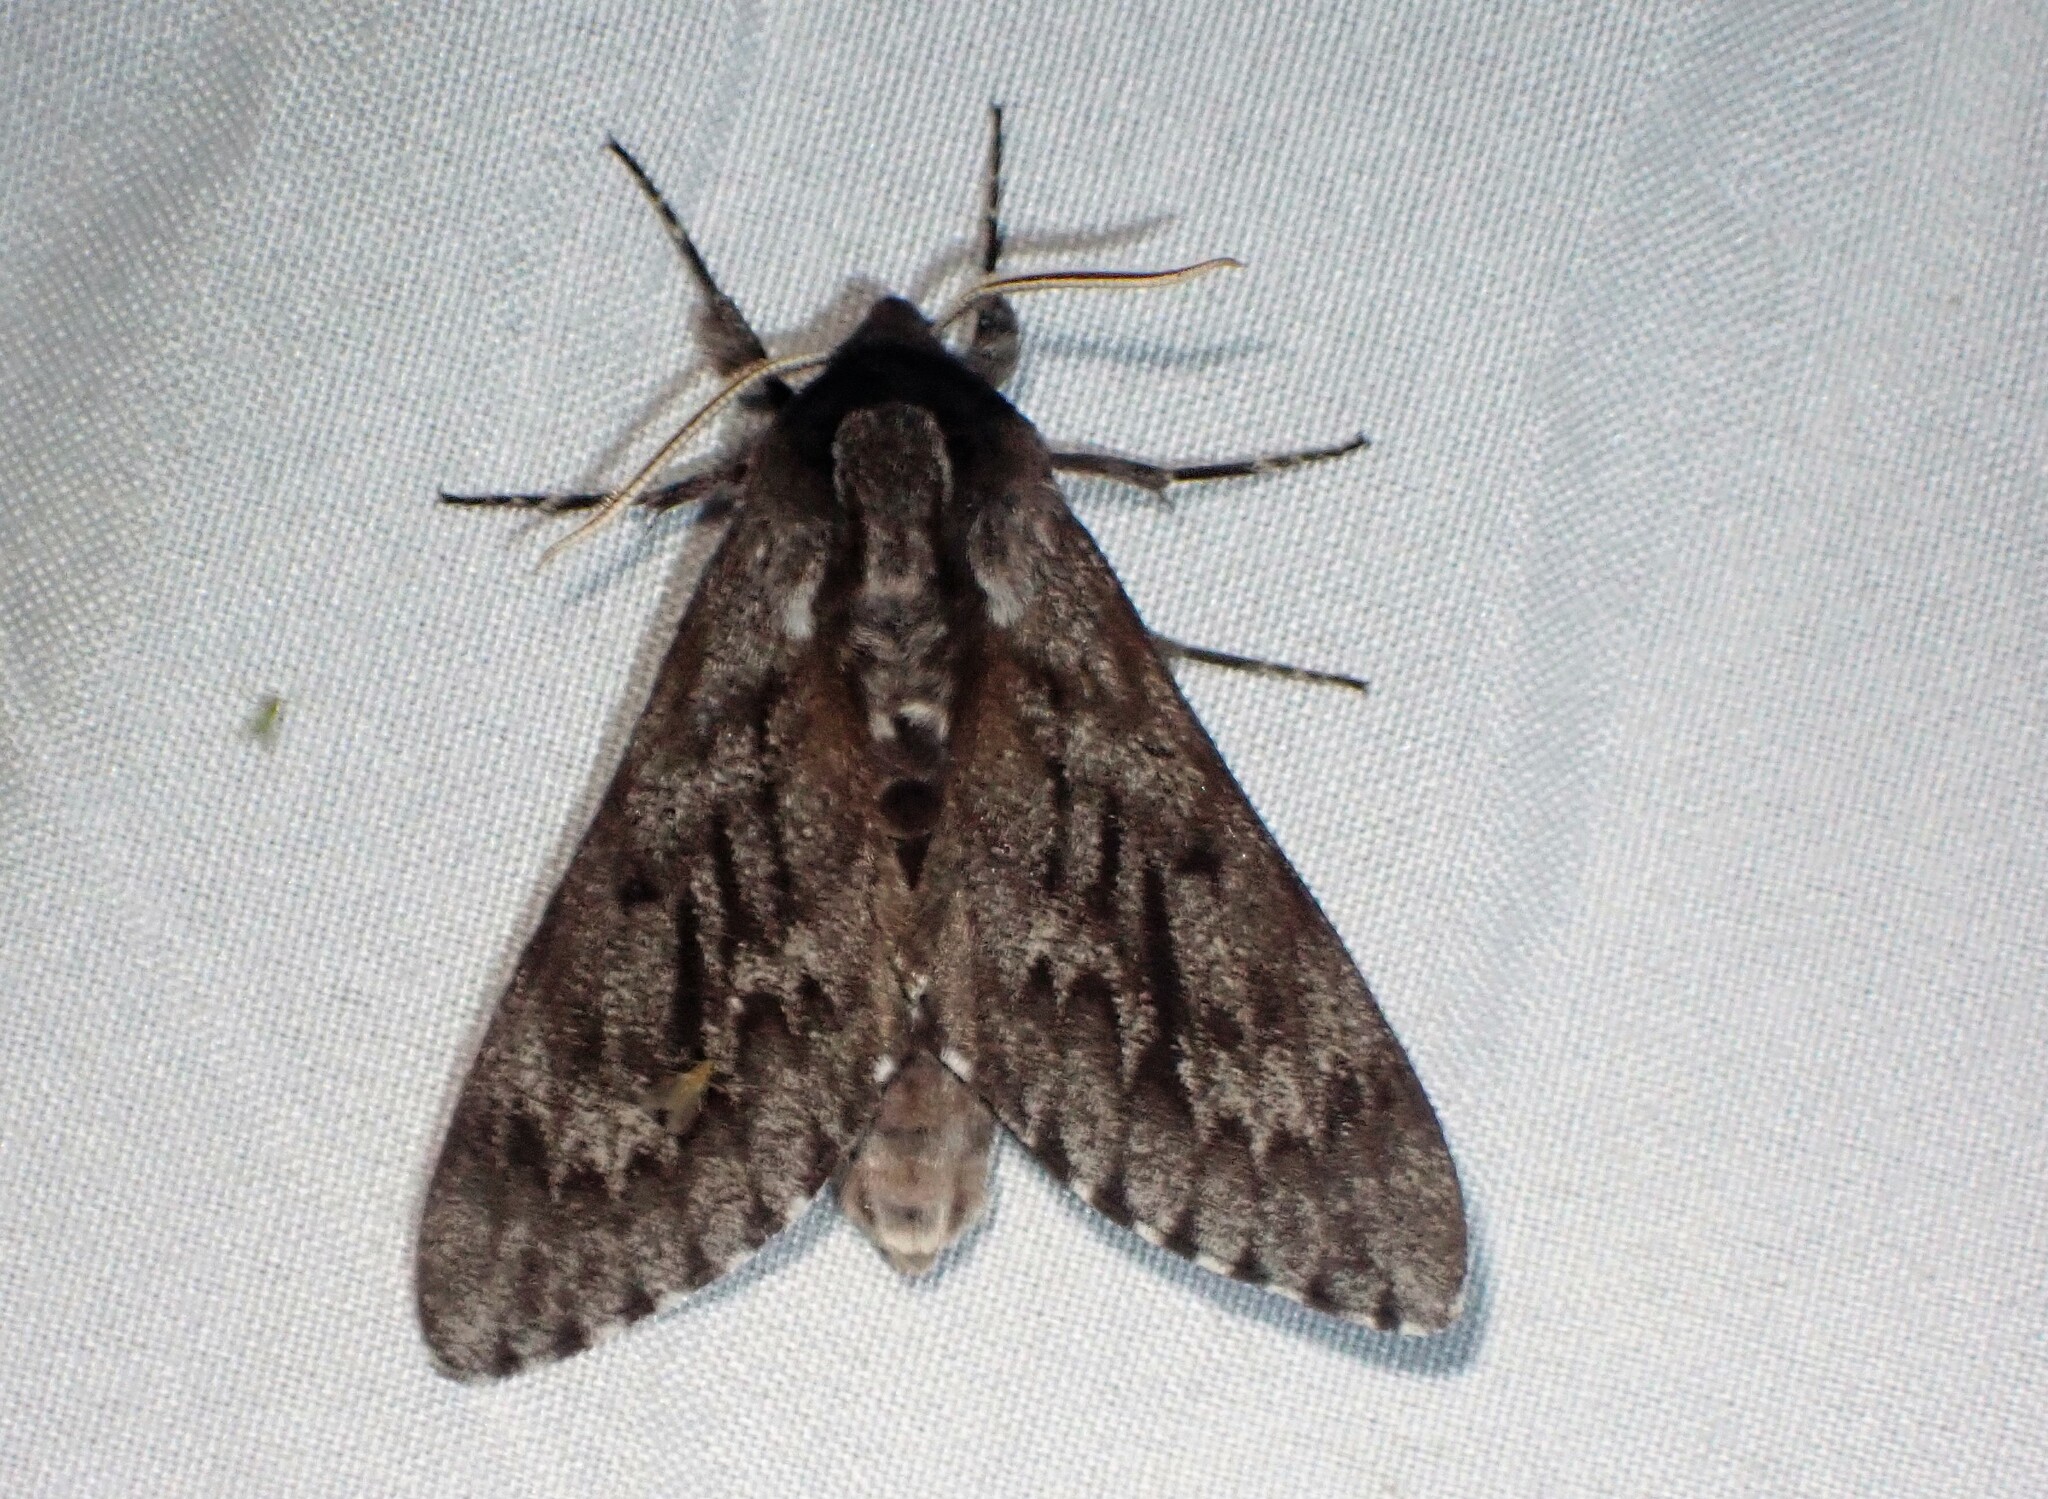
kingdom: Animalia
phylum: Arthropoda
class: Insecta
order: Lepidoptera
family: Sphingidae
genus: Lapara
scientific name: Lapara bombycoides
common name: Northern pine sphinx
